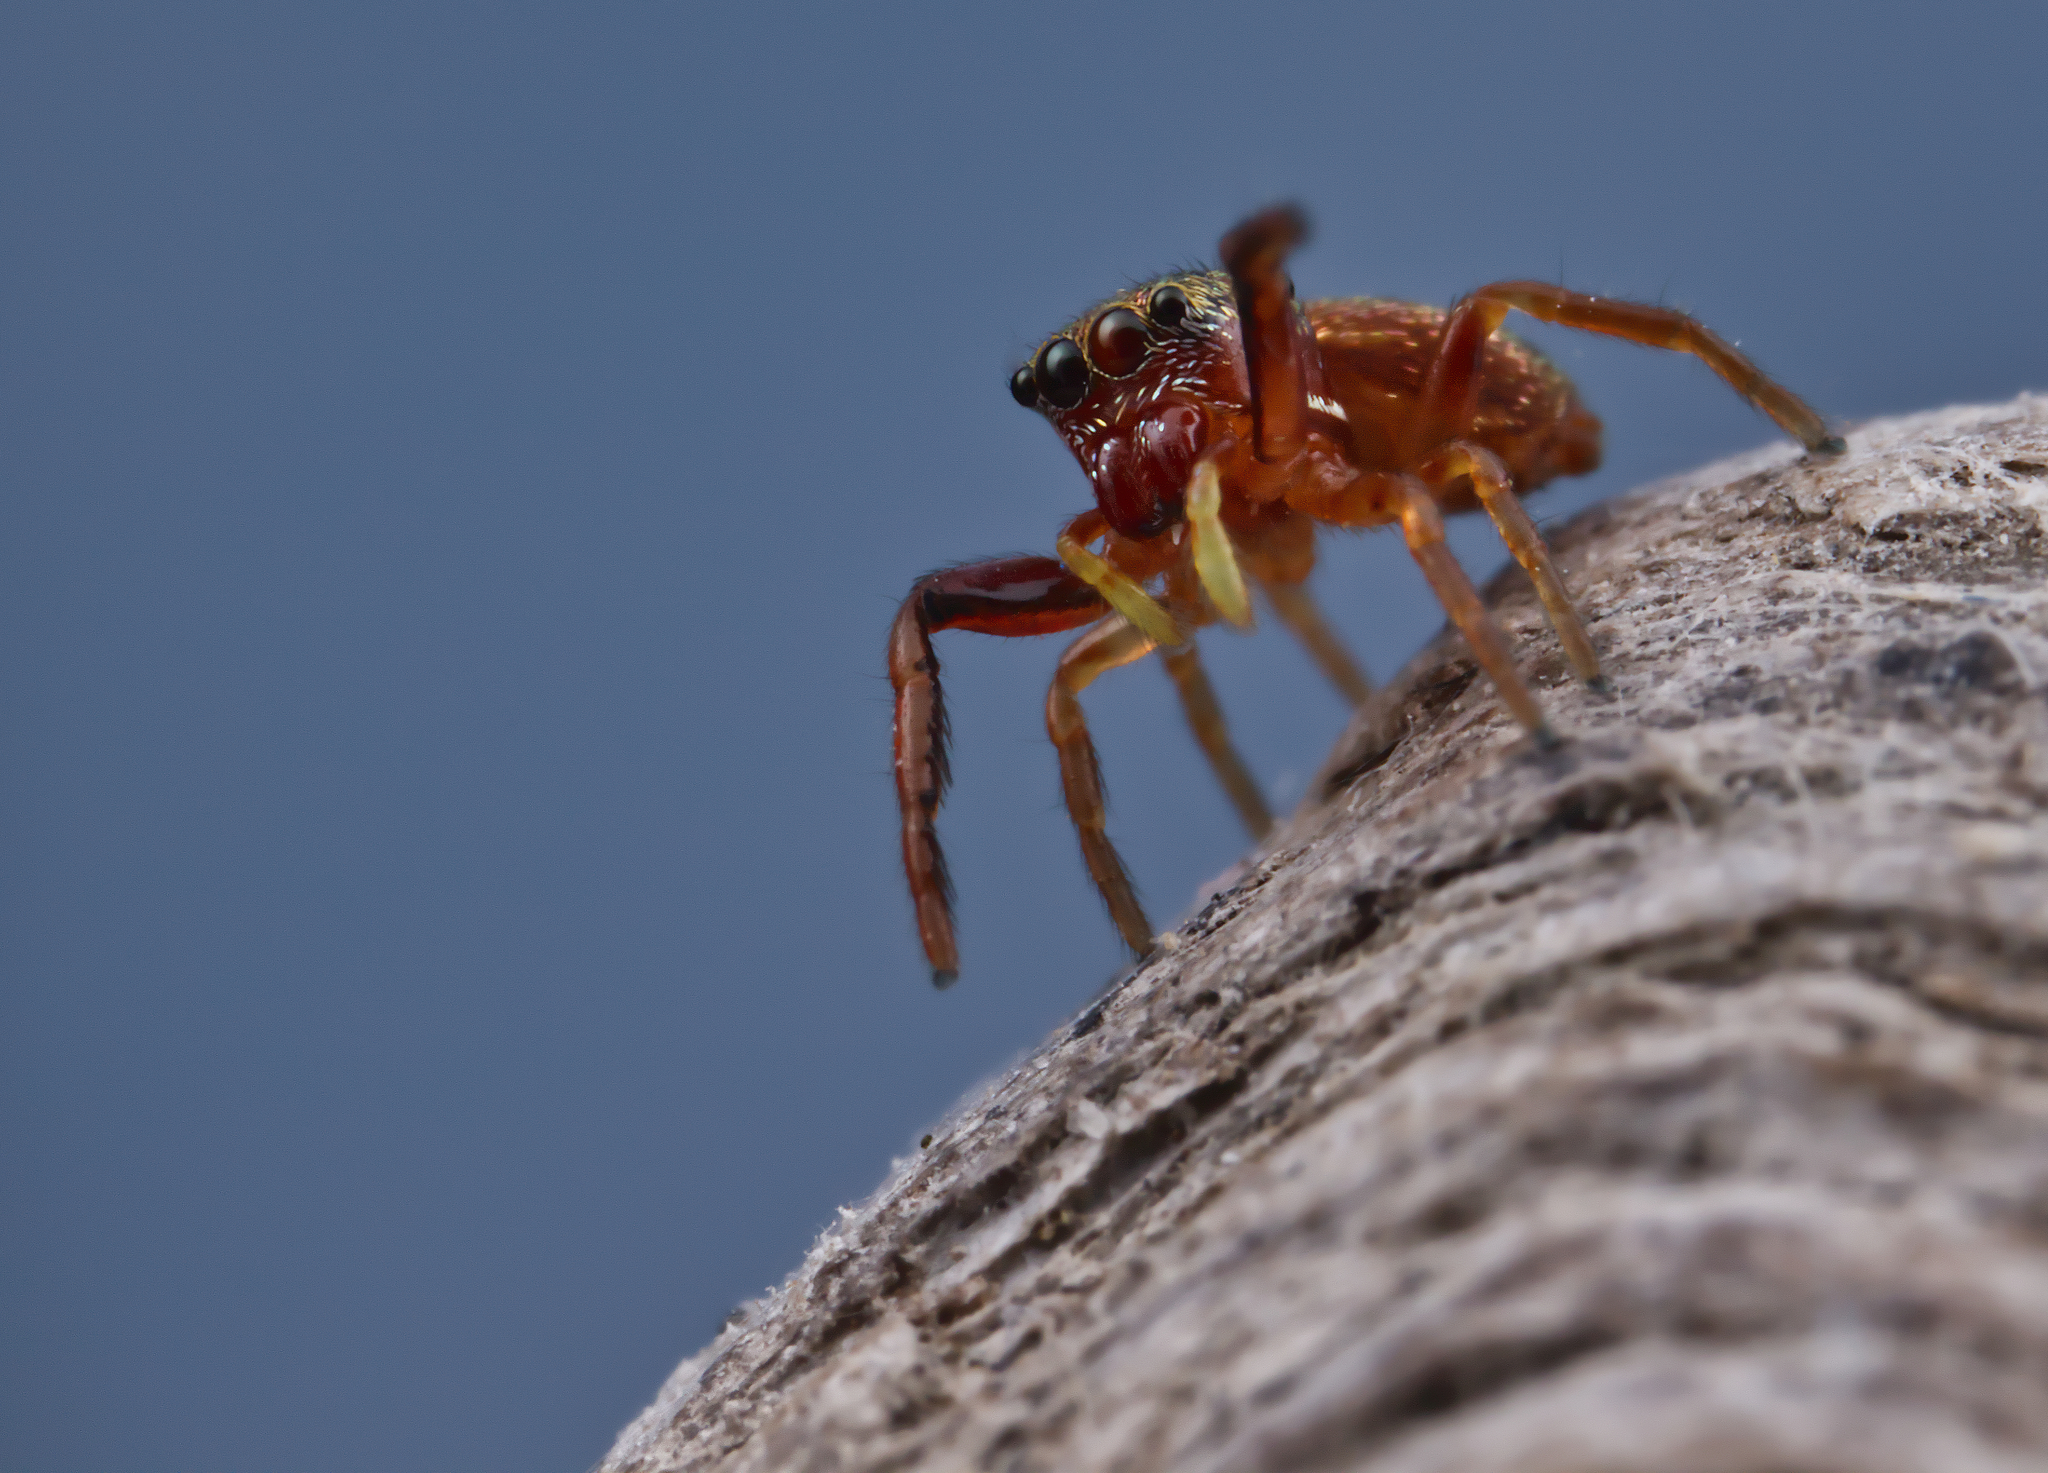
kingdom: Animalia
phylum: Arthropoda
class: Arachnida
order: Araneae
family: Salticidae
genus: Zygoballus
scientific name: Zygoballus sexpunctatus
